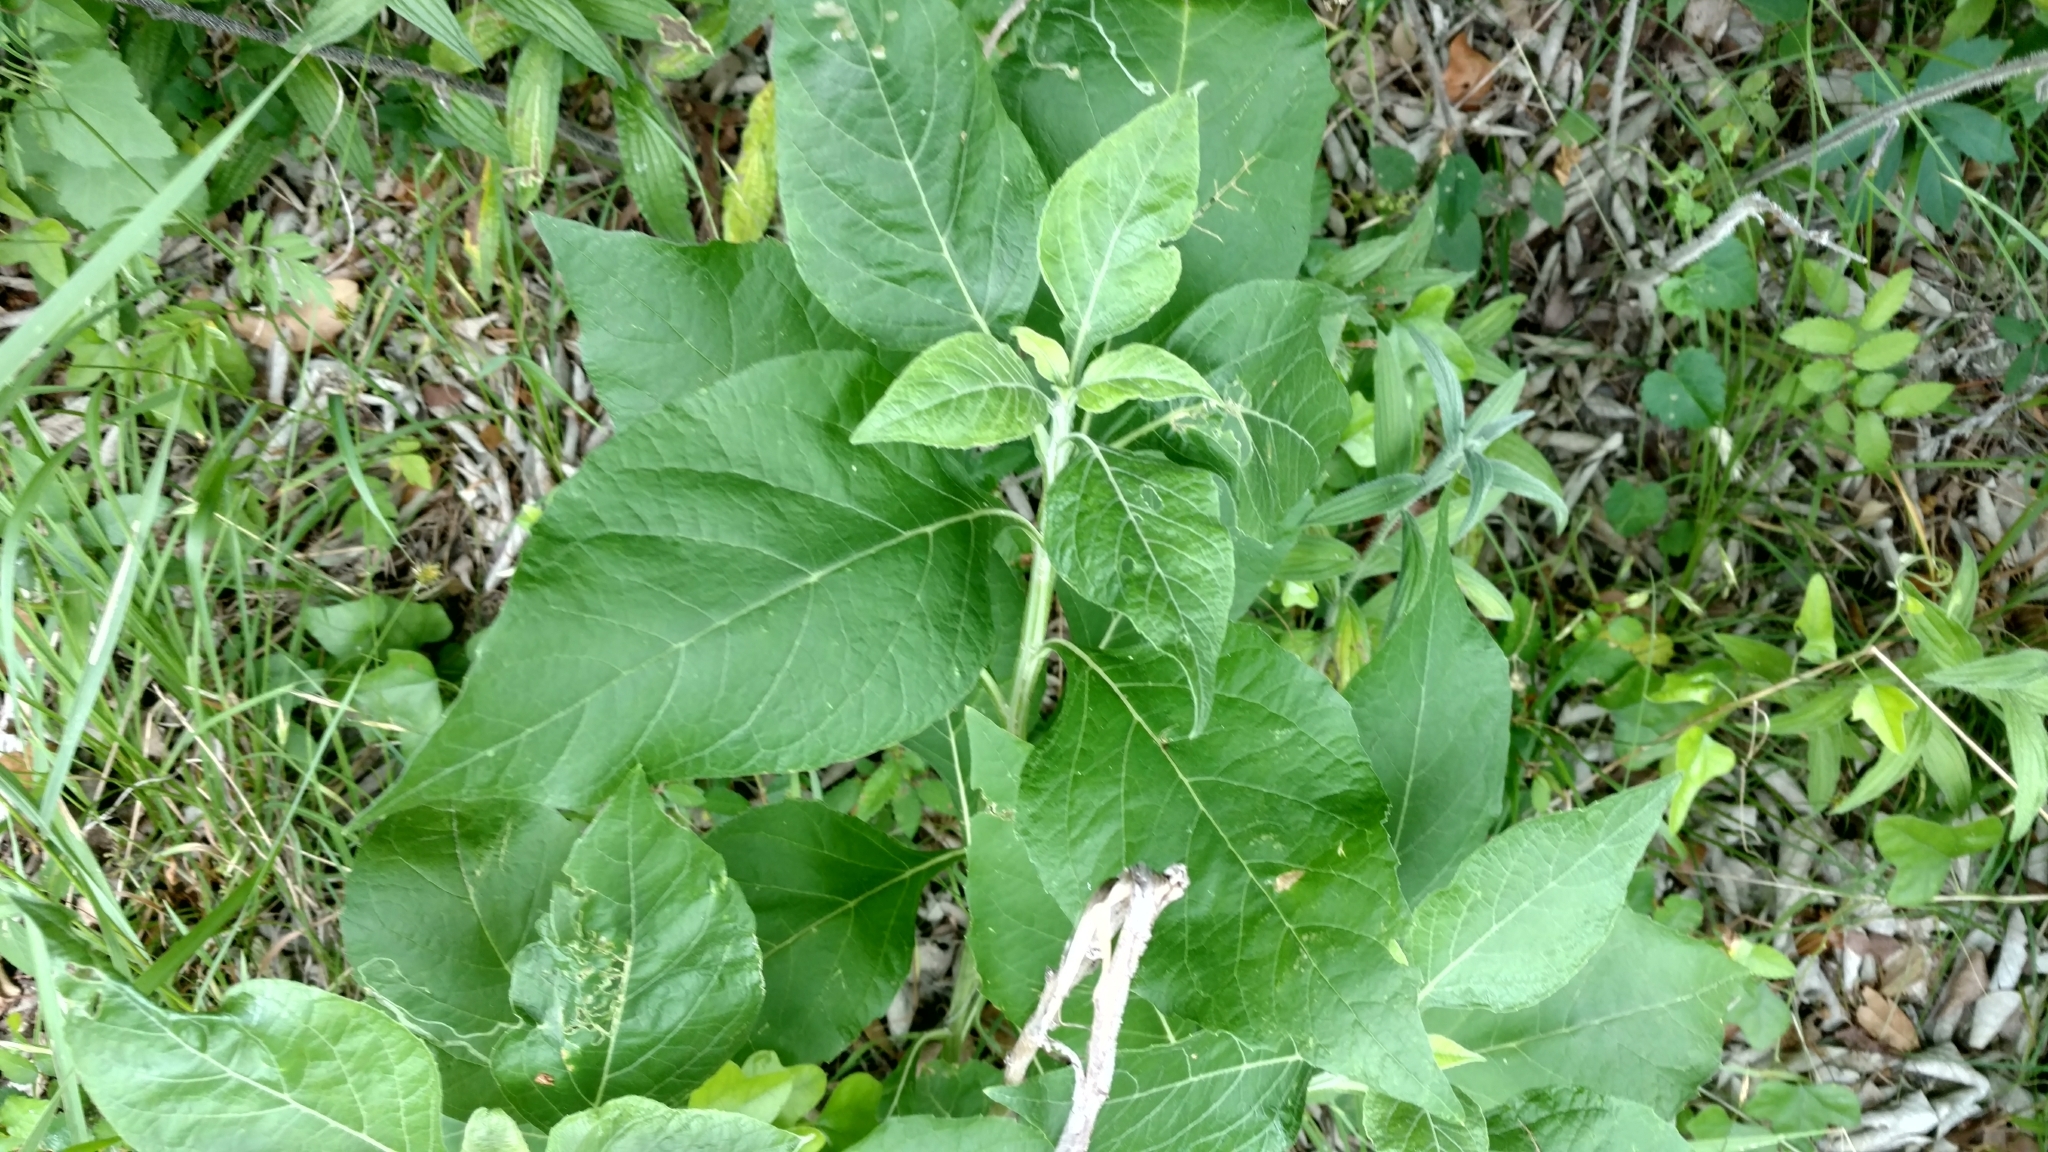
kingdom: Plantae
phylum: Tracheophyta
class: Magnoliopsida
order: Asterales
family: Asteraceae
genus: Verbesina
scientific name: Verbesina virginica
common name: Frostweed
